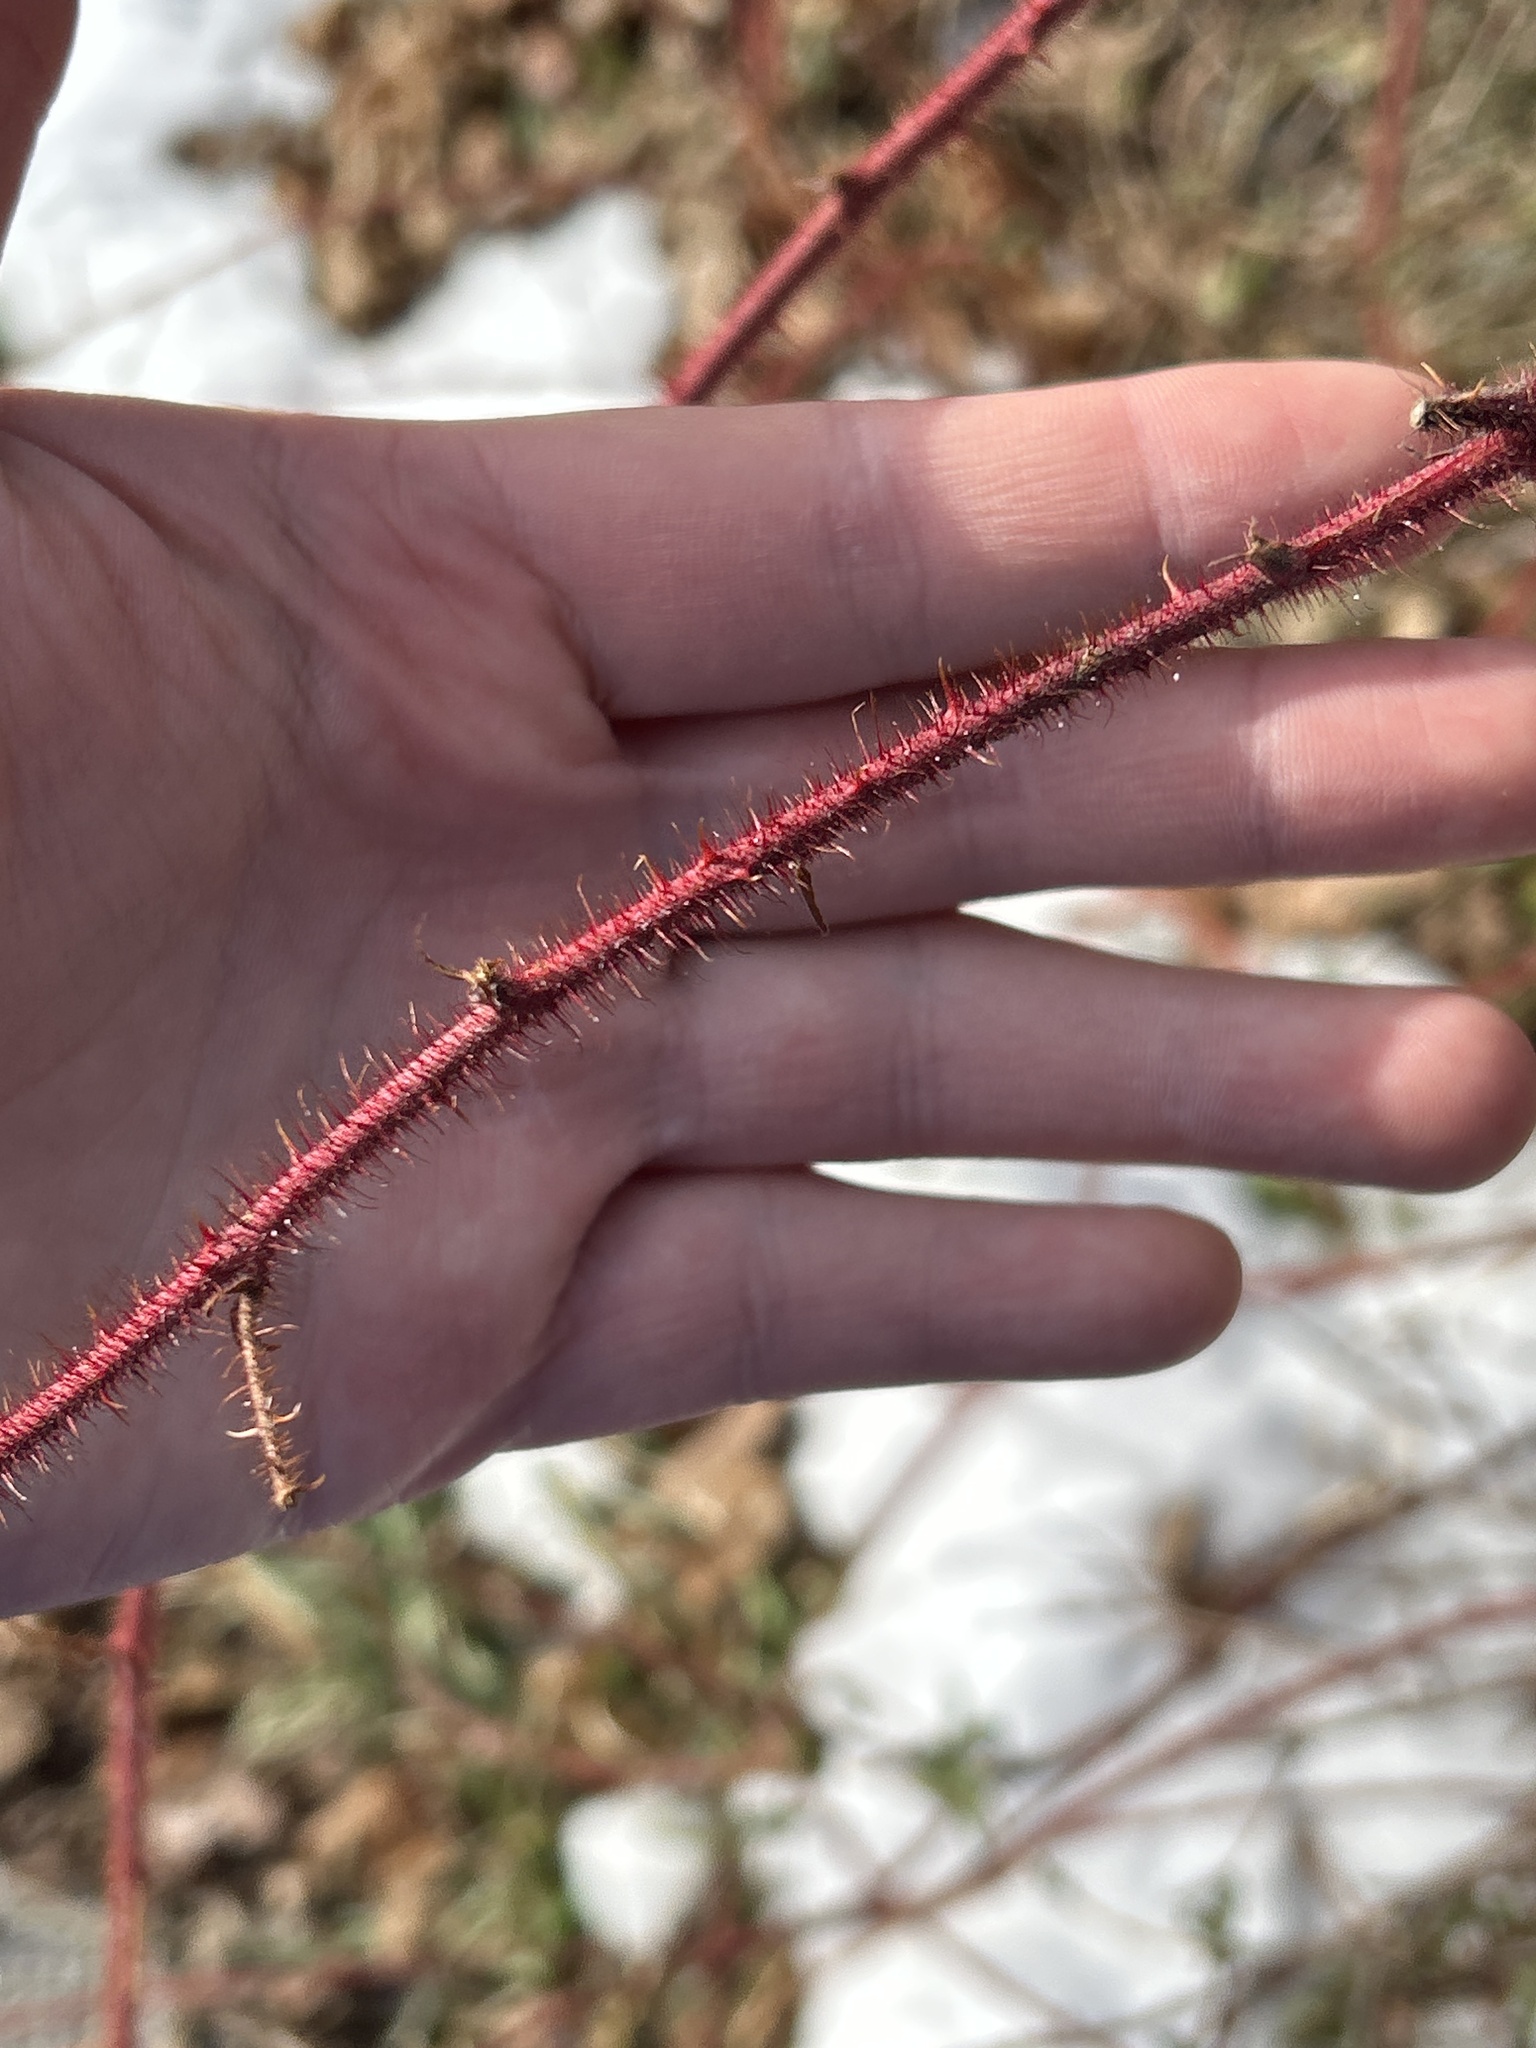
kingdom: Plantae
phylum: Tracheophyta
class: Magnoliopsida
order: Rosales
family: Rosaceae
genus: Rubus
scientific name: Rubus phoenicolasius
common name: Japanese wineberry
